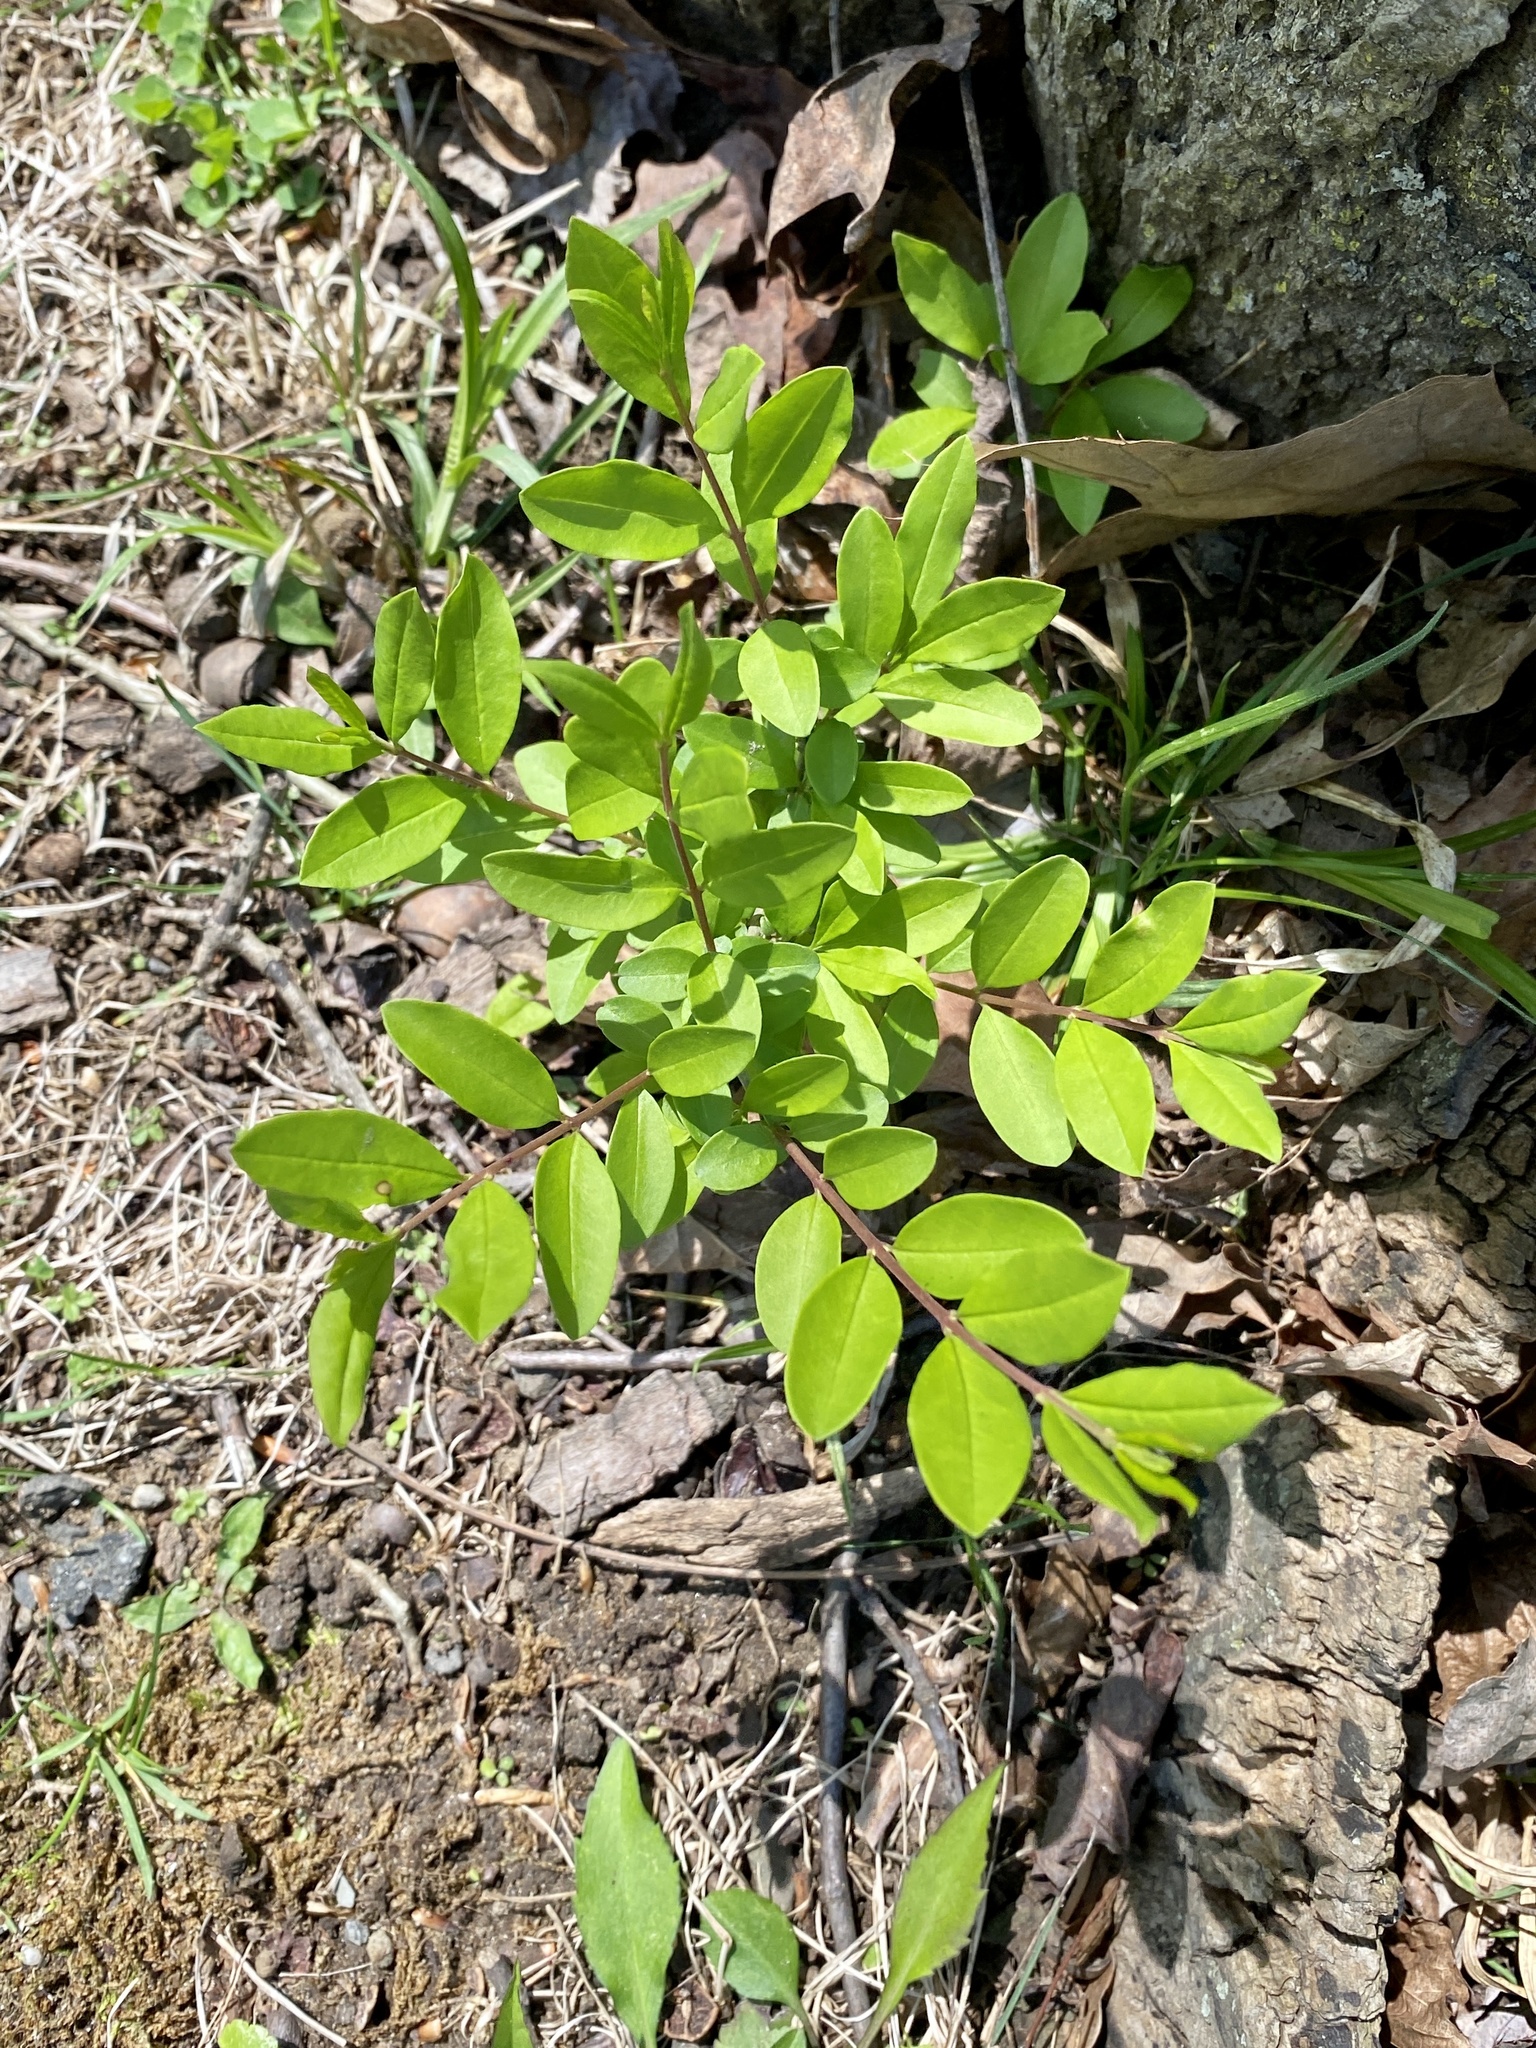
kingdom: Plantae
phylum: Tracheophyta
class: Magnoliopsida
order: Lamiales
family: Oleaceae
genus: Ligustrum
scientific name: Ligustrum obtusifolium
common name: Border privet
